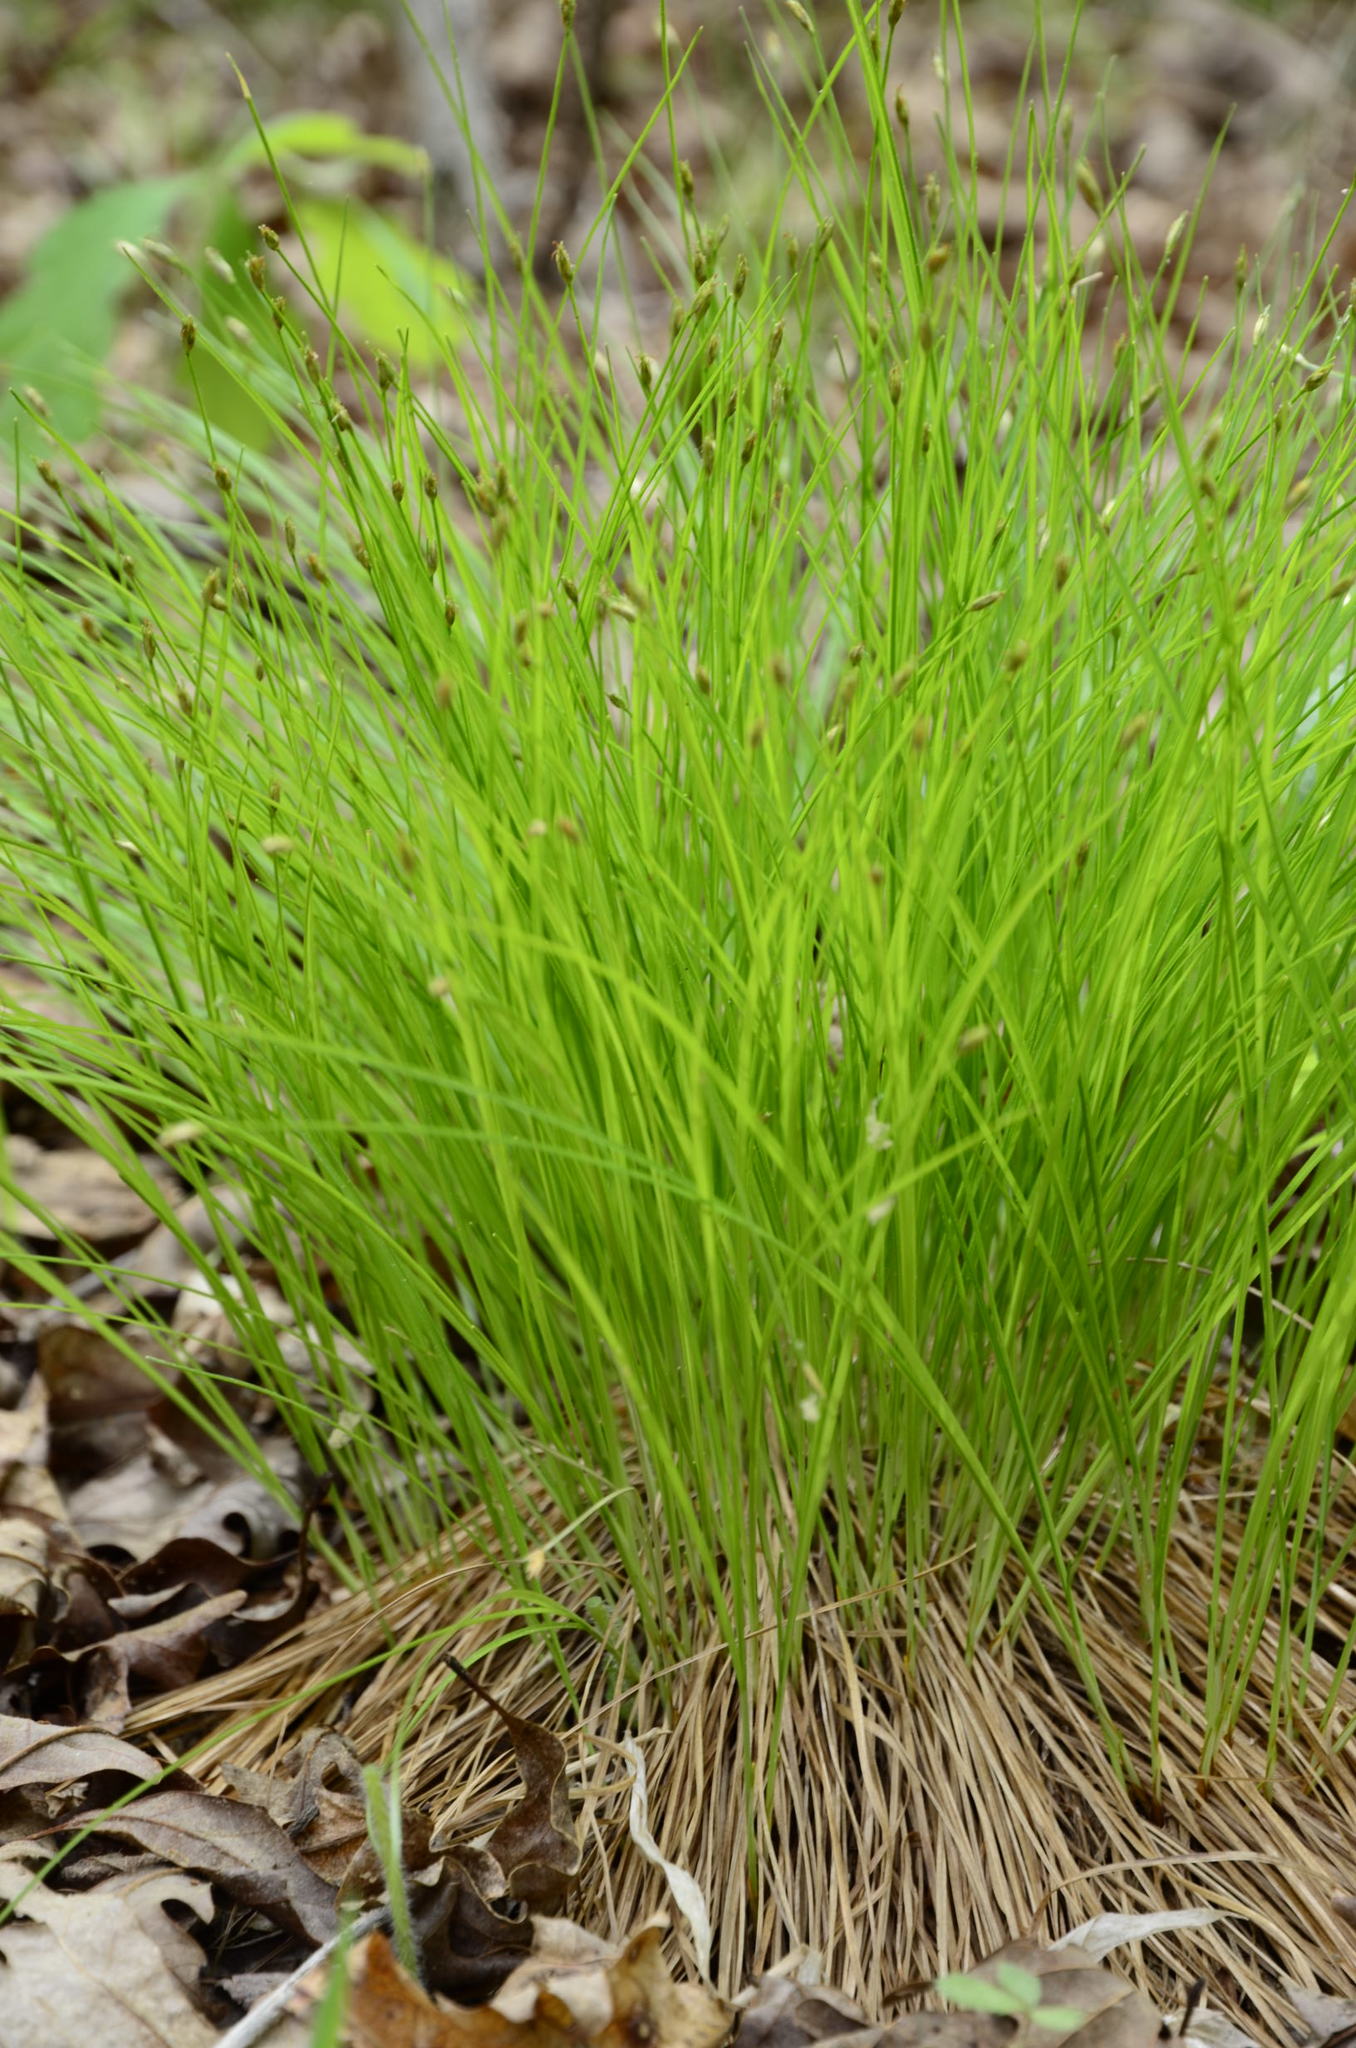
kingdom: Plantae
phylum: Tracheophyta
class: Liliopsida
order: Poales
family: Cyperaceae
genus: Trichophorum
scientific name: Trichophorum planifolium
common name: Bashful bulrush
